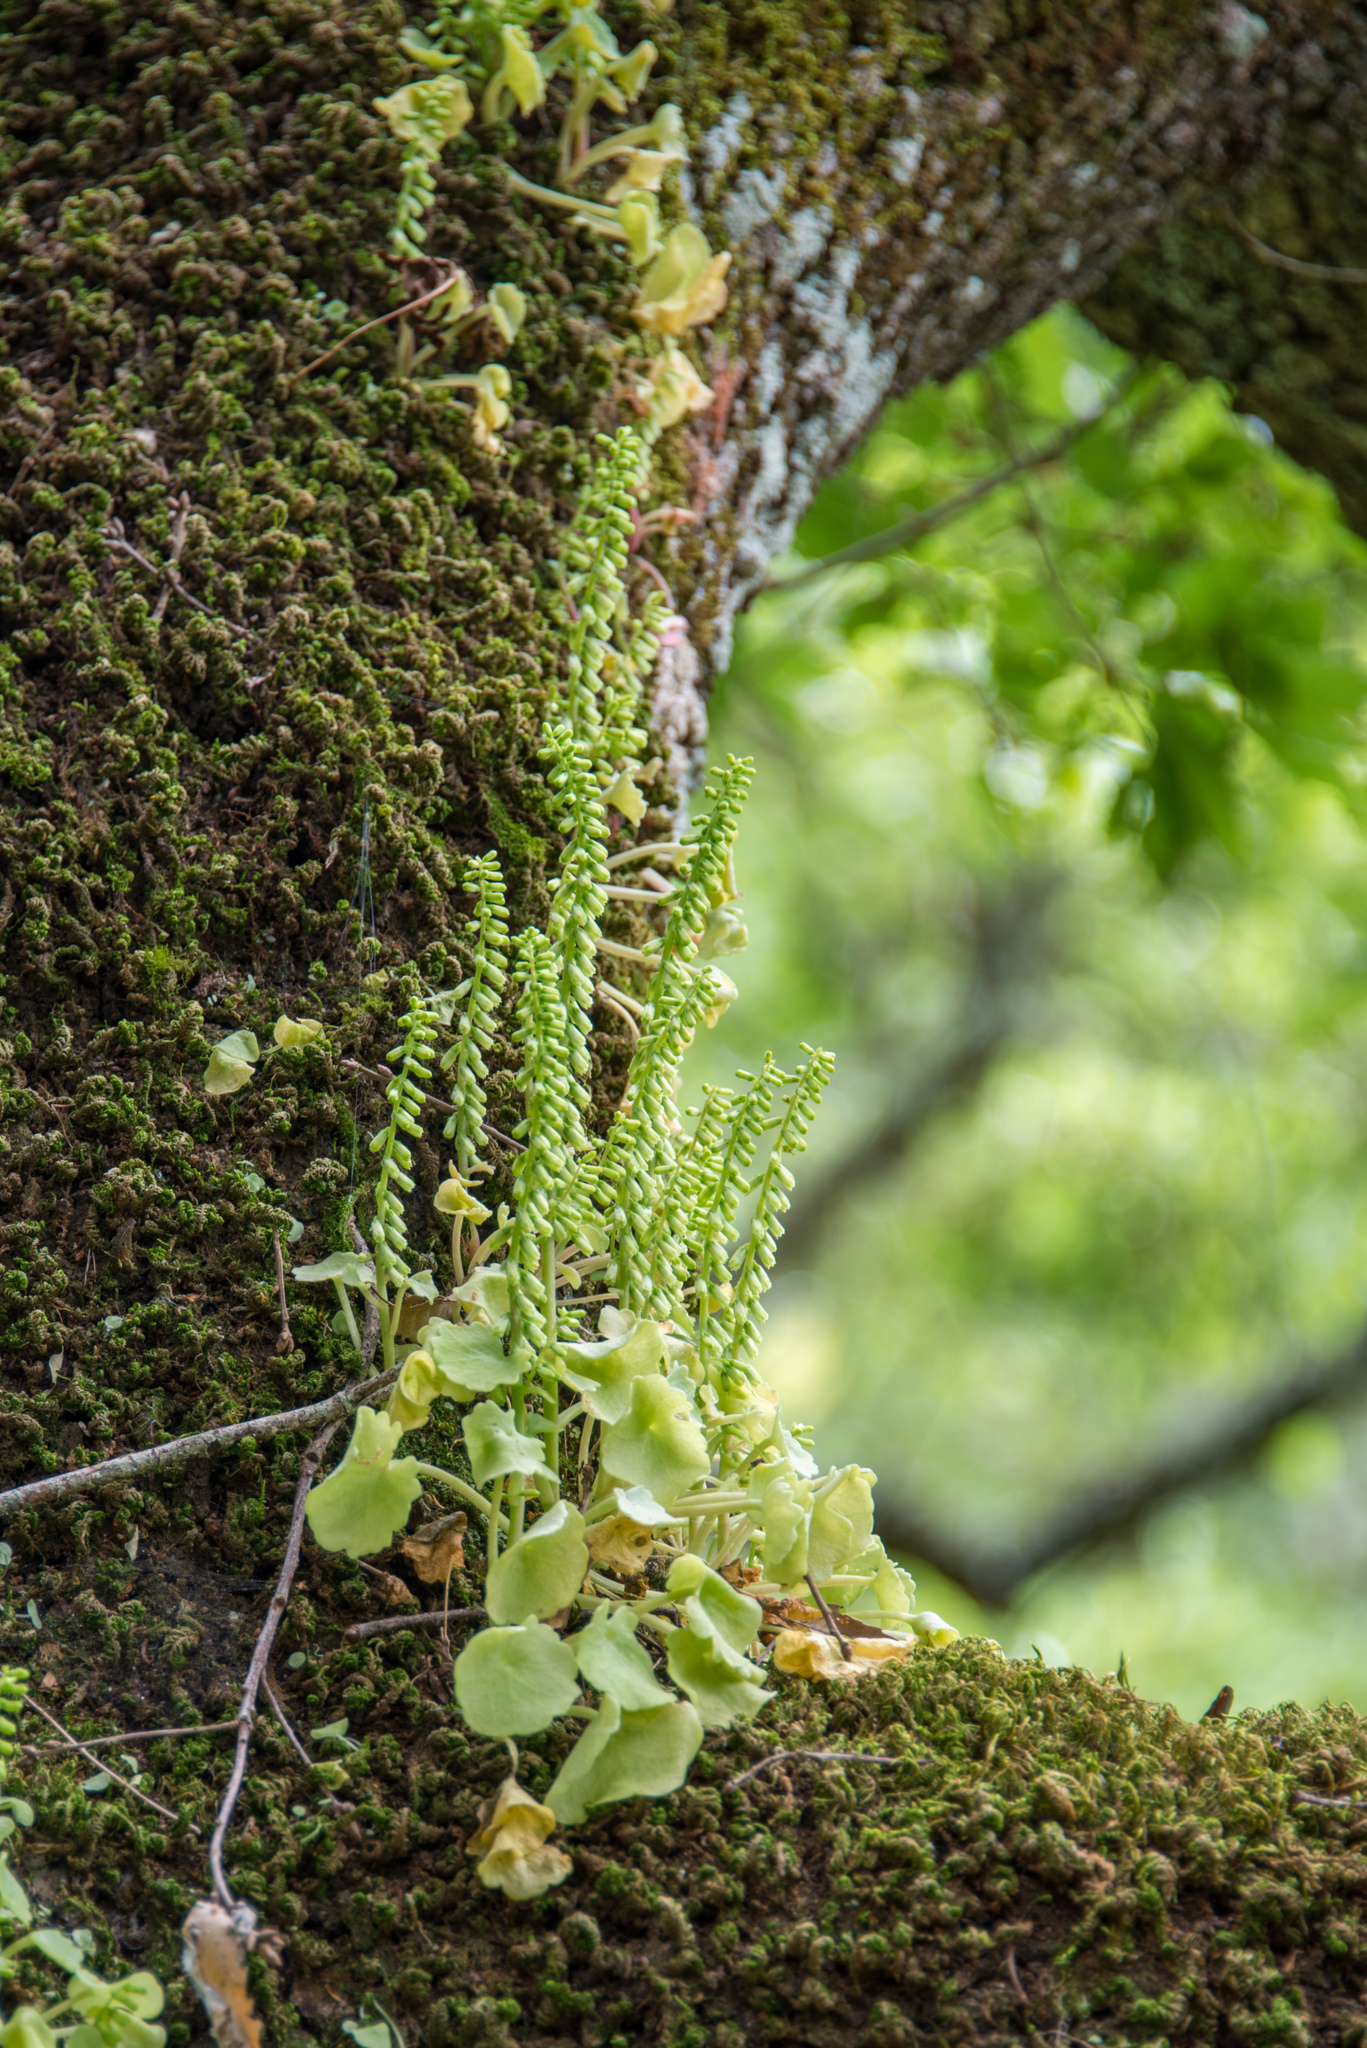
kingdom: Plantae
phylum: Tracheophyta
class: Magnoliopsida
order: Saxifragales
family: Crassulaceae
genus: Umbilicus
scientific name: Umbilicus rupestris
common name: Navelwort
